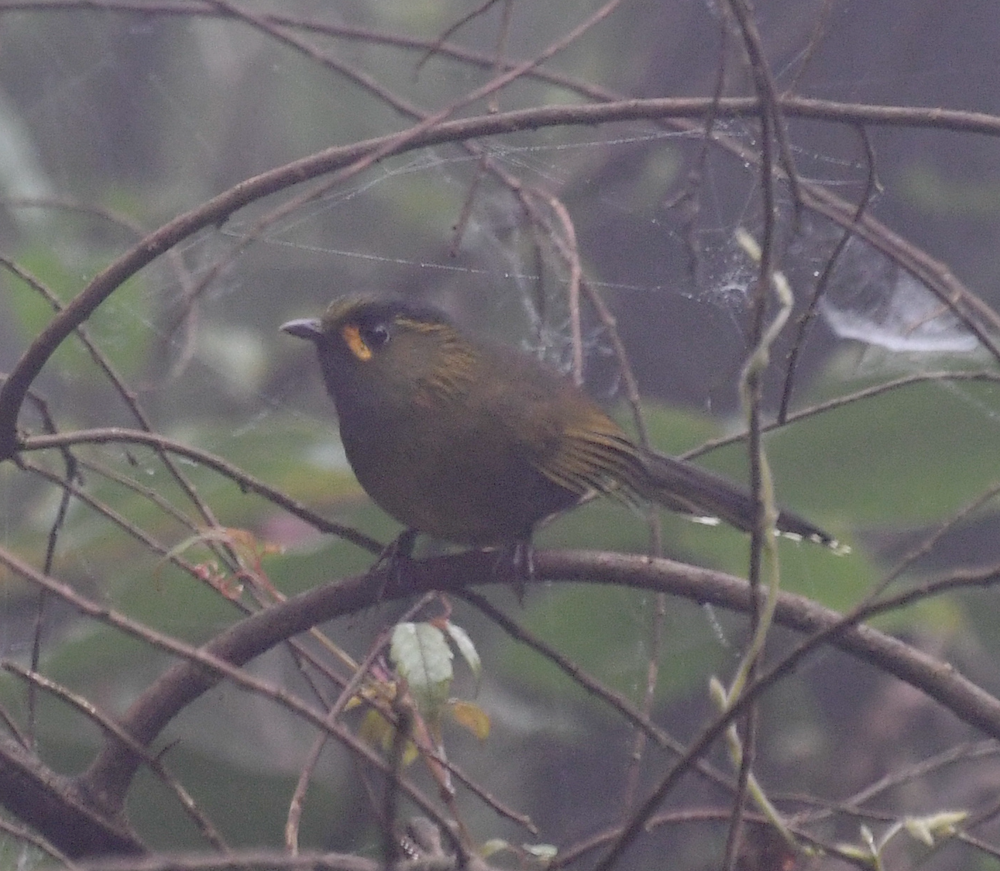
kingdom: Animalia
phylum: Chordata
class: Aves
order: Passeriformes
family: Leiothrichidae
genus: Liocichla
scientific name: Liocichla steerii
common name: Steere's liocichla
